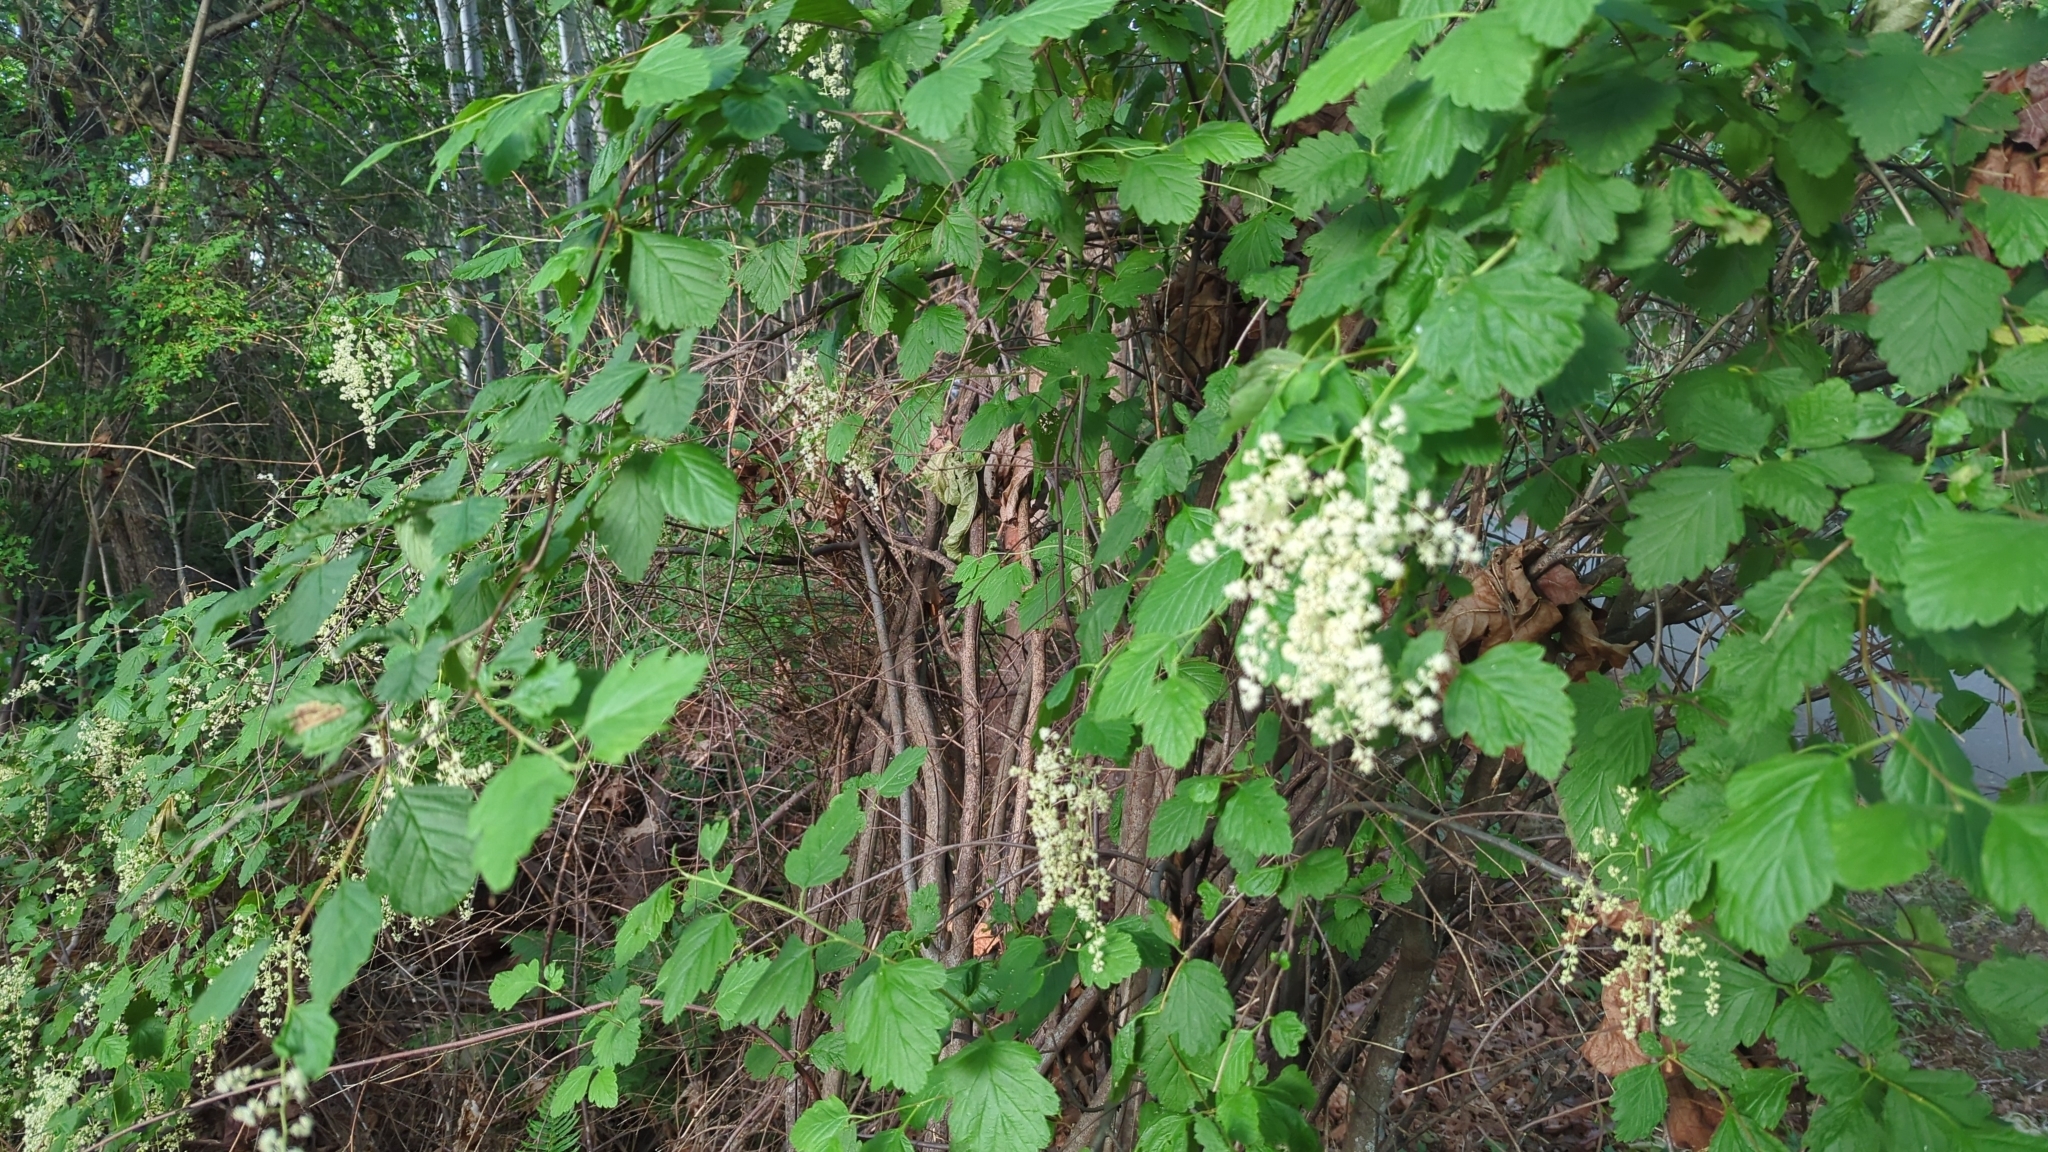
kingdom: Plantae
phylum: Tracheophyta
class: Magnoliopsida
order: Rosales
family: Rosaceae
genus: Holodiscus
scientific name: Holodiscus discolor
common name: Oceanspray
